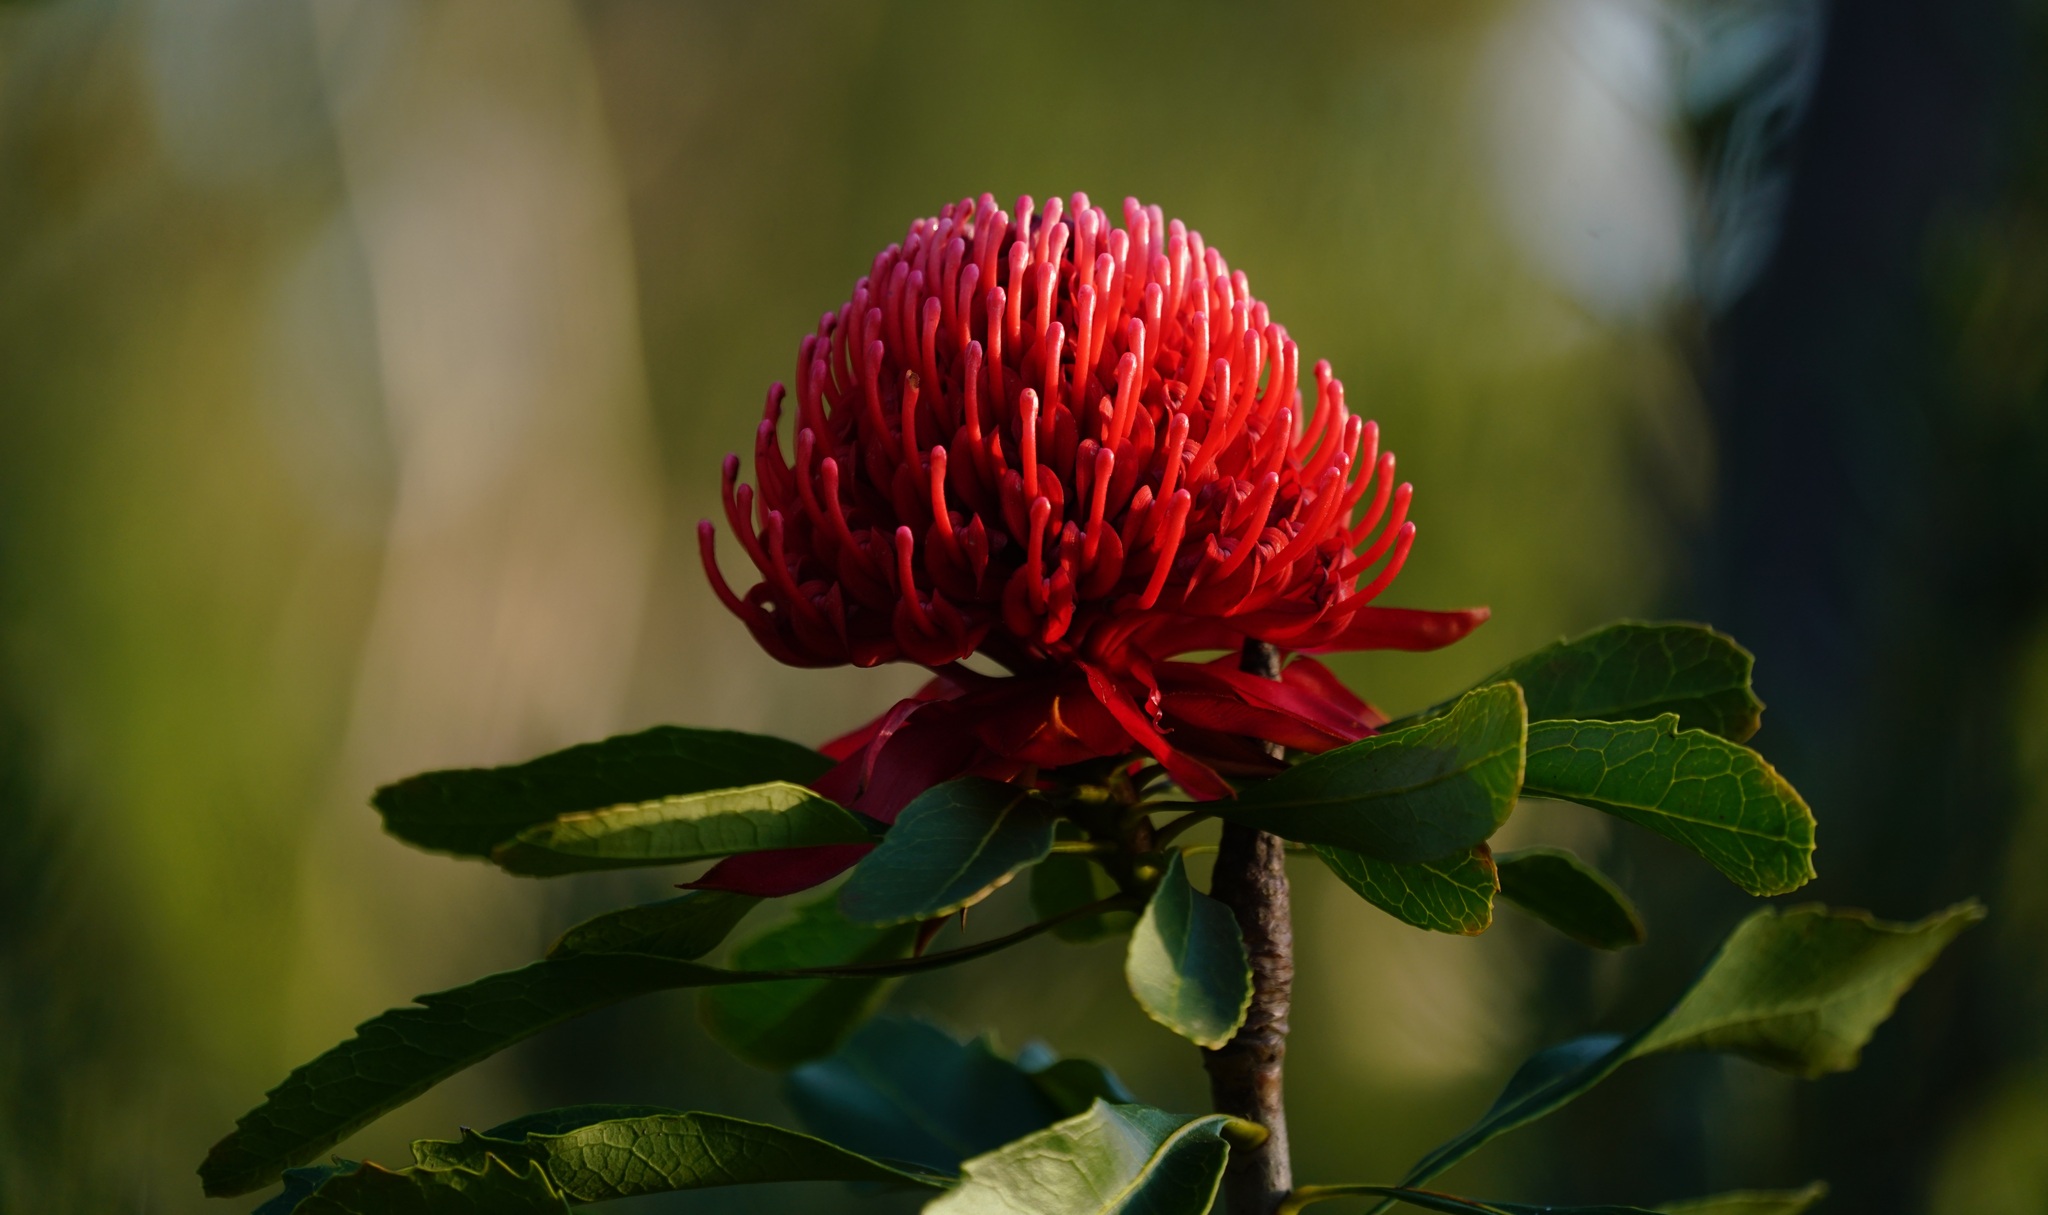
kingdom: Plantae
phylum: Tracheophyta
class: Magnoliopsida
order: Proteales
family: Proteaceae
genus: Telopea
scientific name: Telopea speciosissima
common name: New south wales waratah
